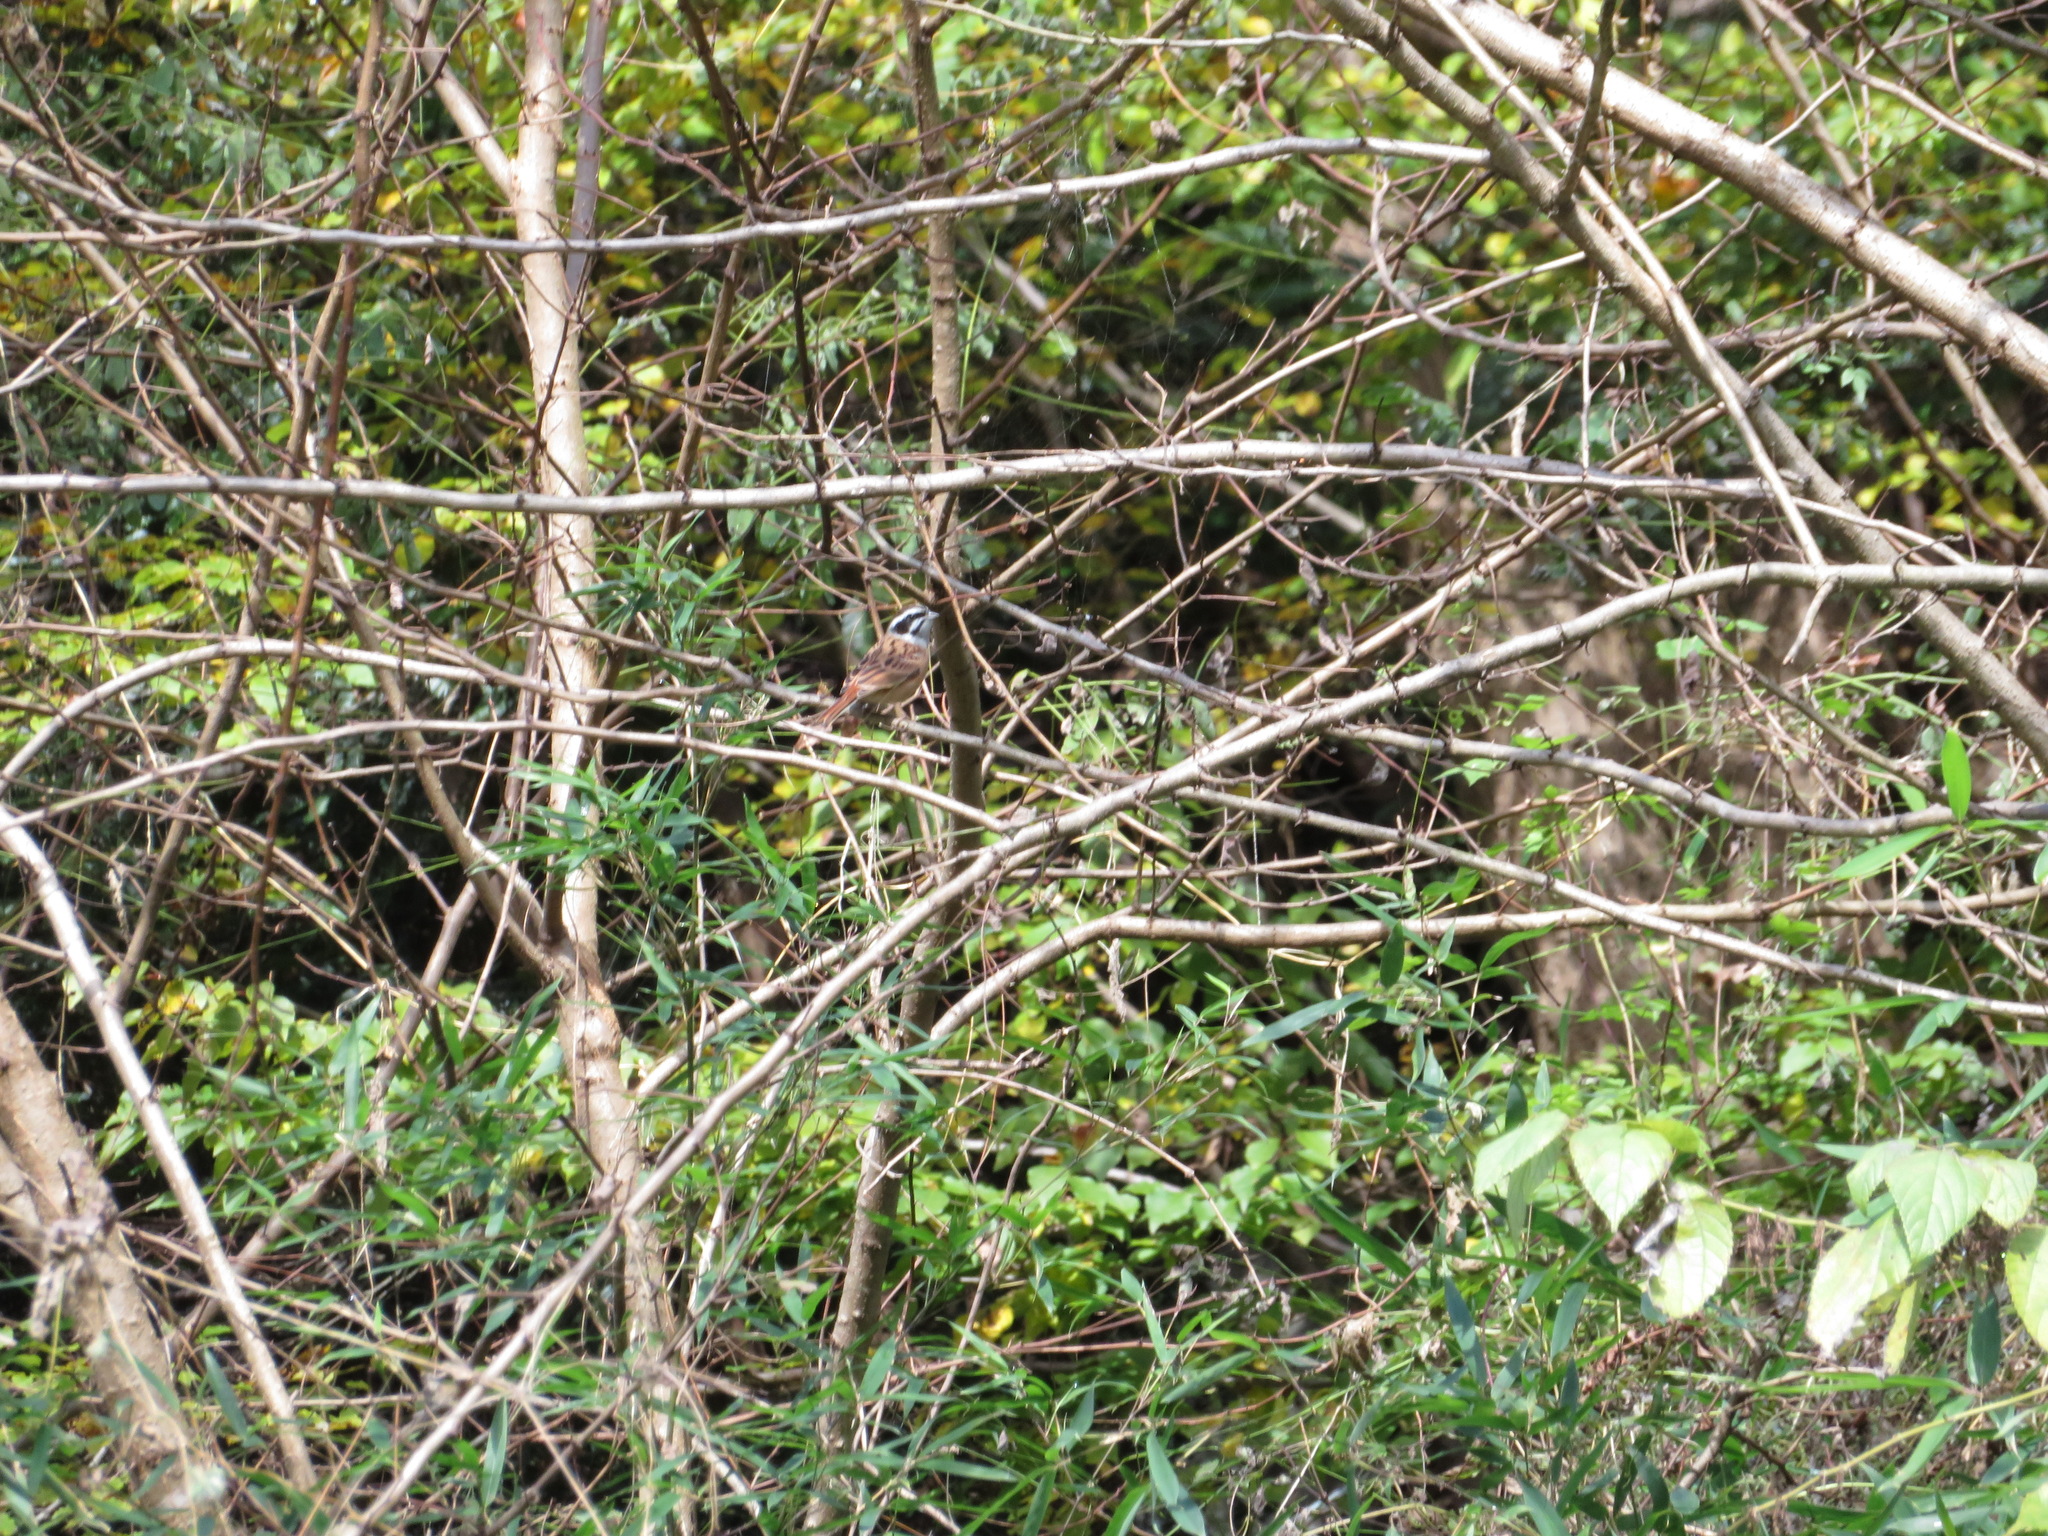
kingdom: Animalia
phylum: Chordata
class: Aves
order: Passeriformes
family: Emberizidae
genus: Emberiza
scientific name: Emberiza cioides
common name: Meadow bunting
